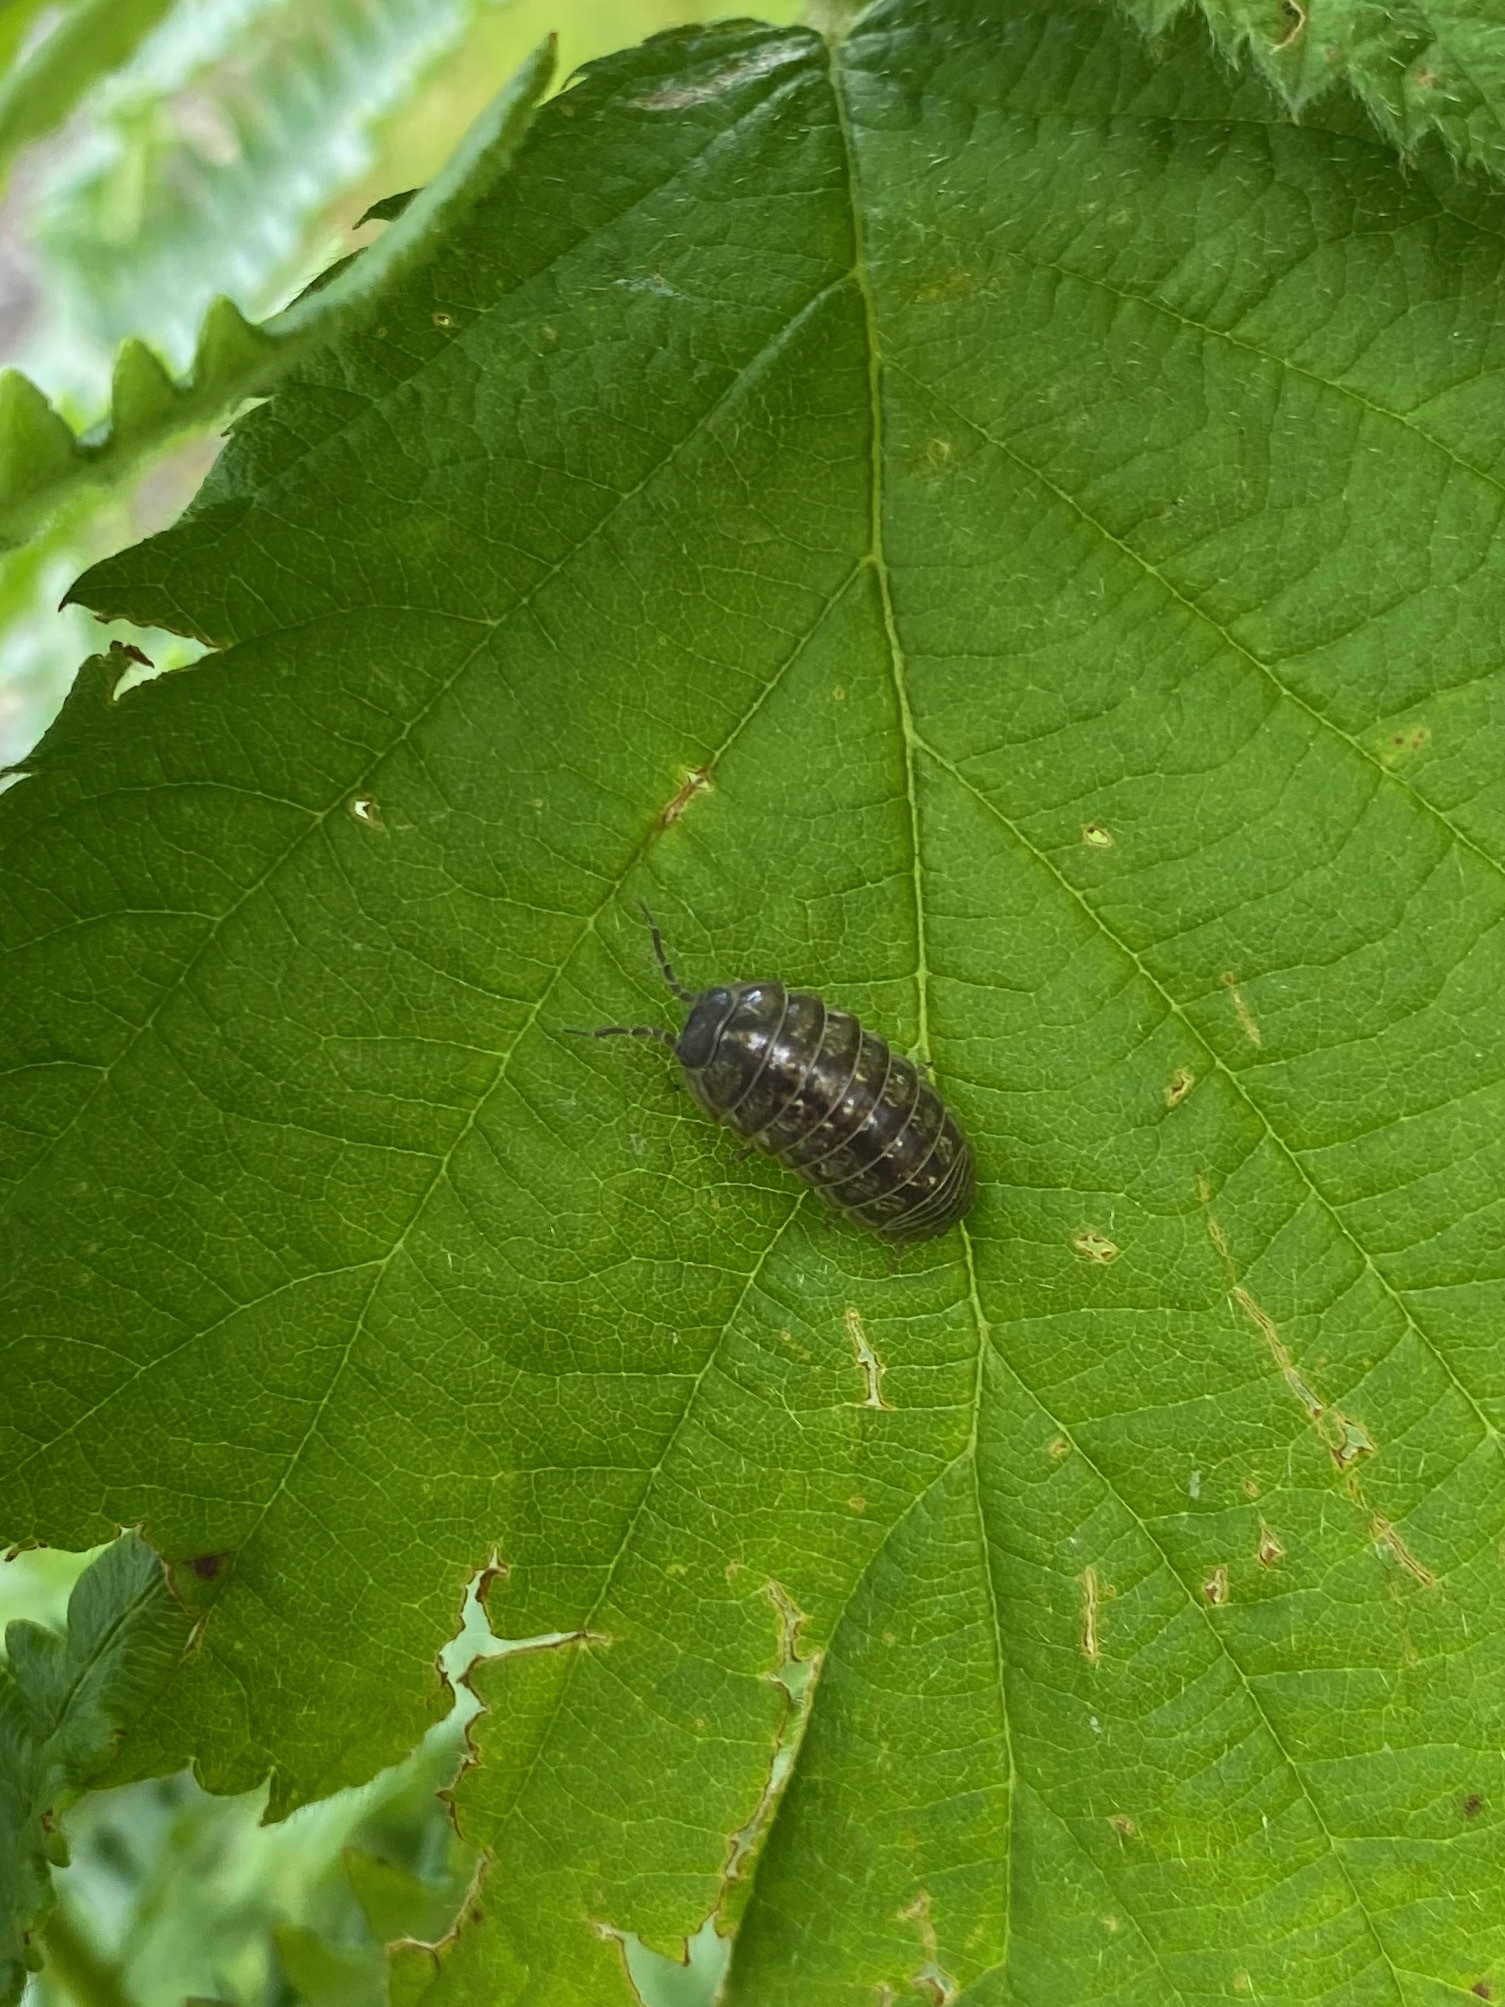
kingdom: Animalia
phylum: Arthropoda
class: Malacostraca
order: Isopoda
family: Armadillidiidae
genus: Armadillidium
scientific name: Armadillidium vulgare
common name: Common pill woodlouse
